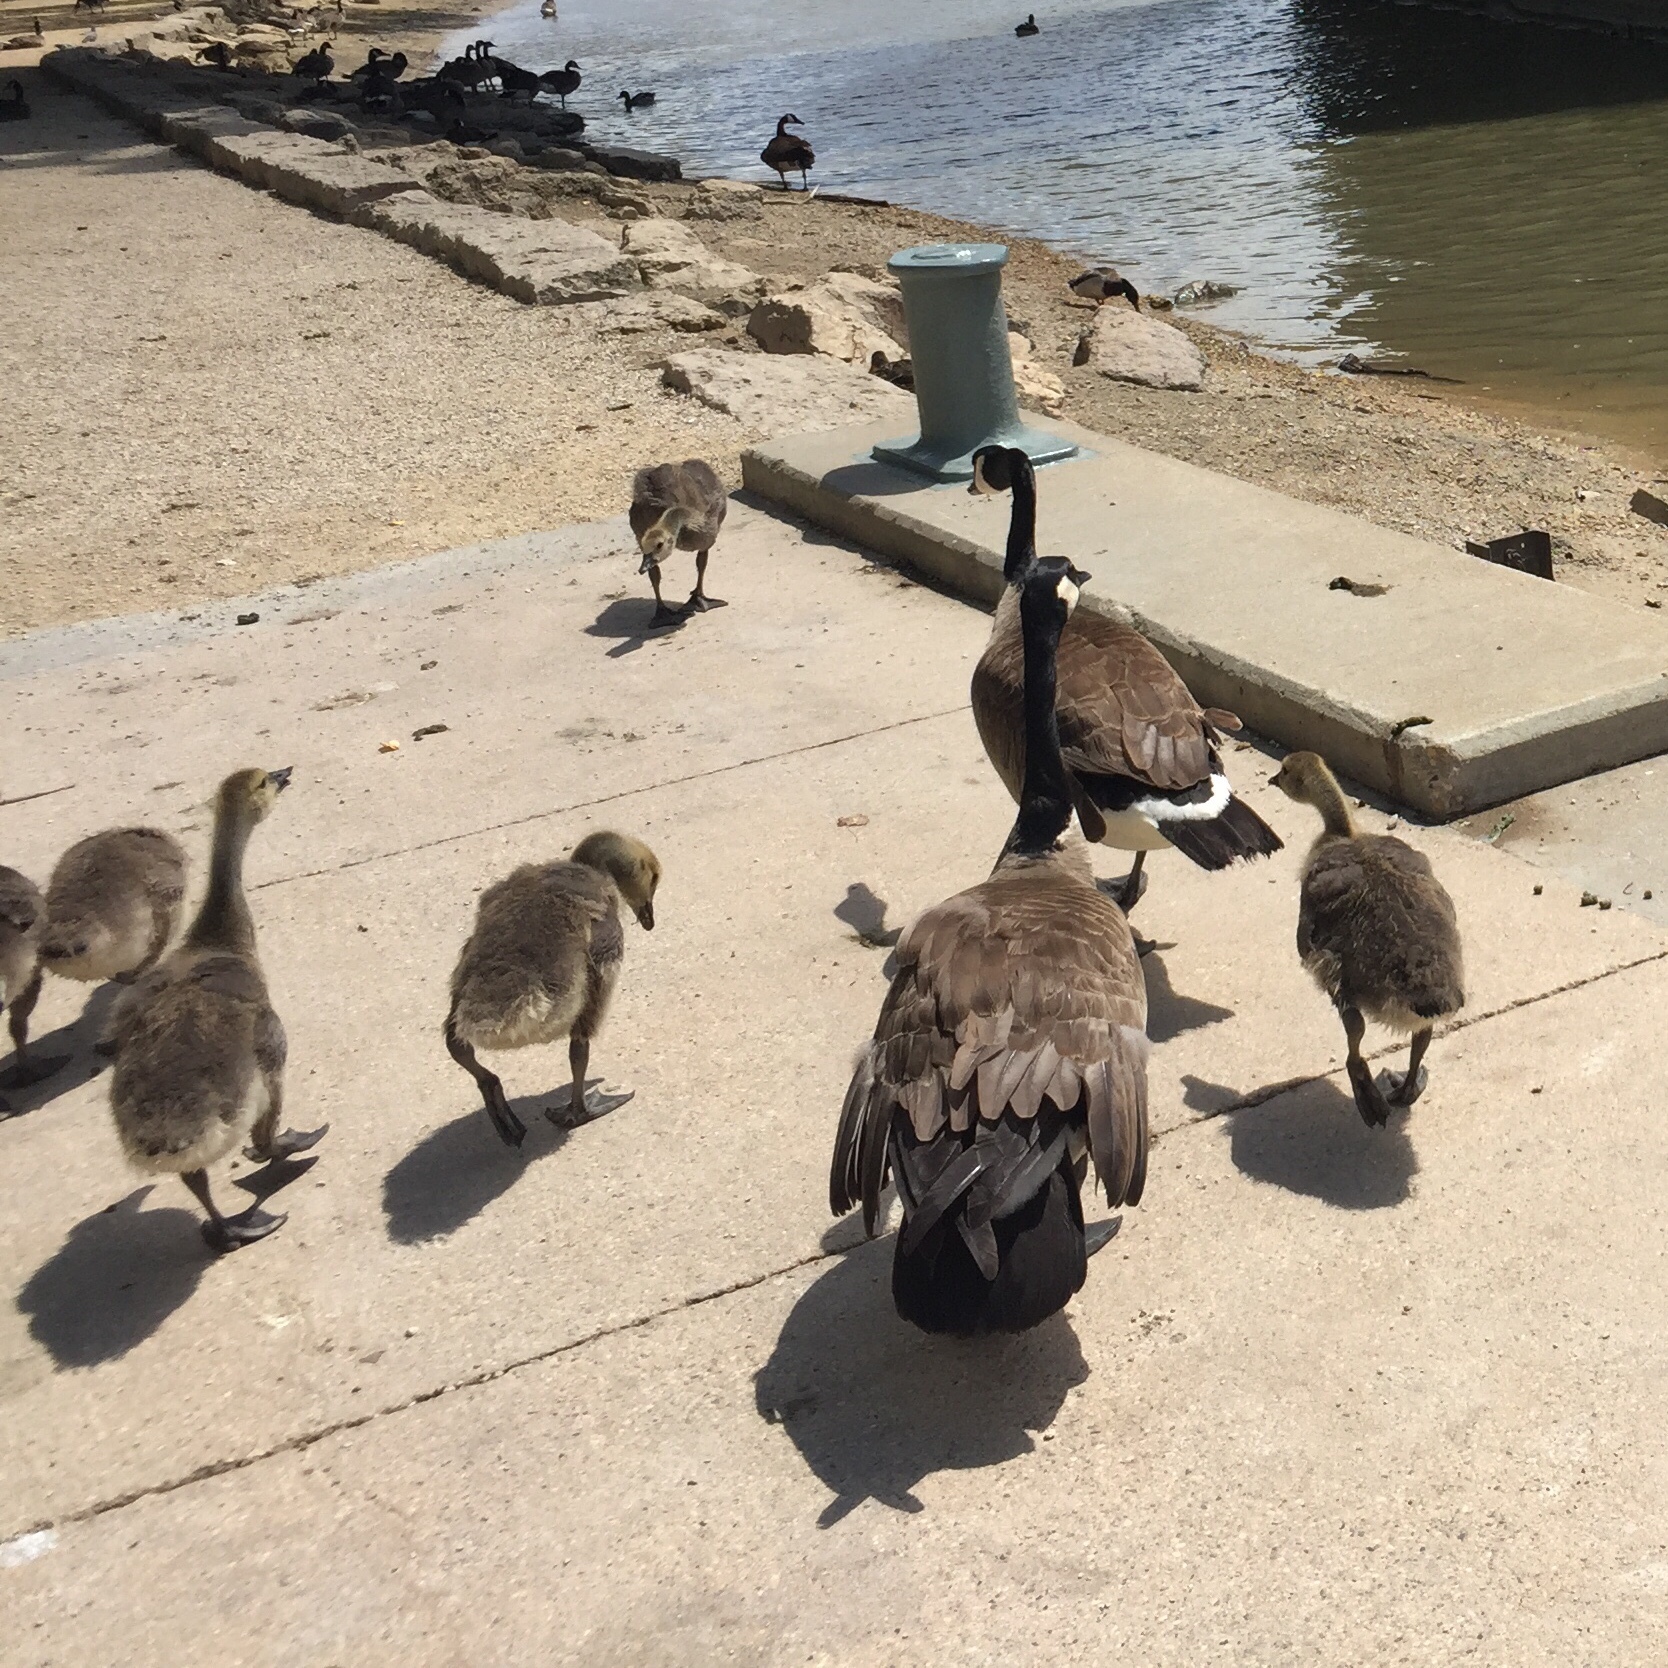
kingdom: Animalia
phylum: Chordata
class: Aves
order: Anseriformes
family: Anatidae
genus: Branta
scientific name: Branta canadensis
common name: Canada goose
